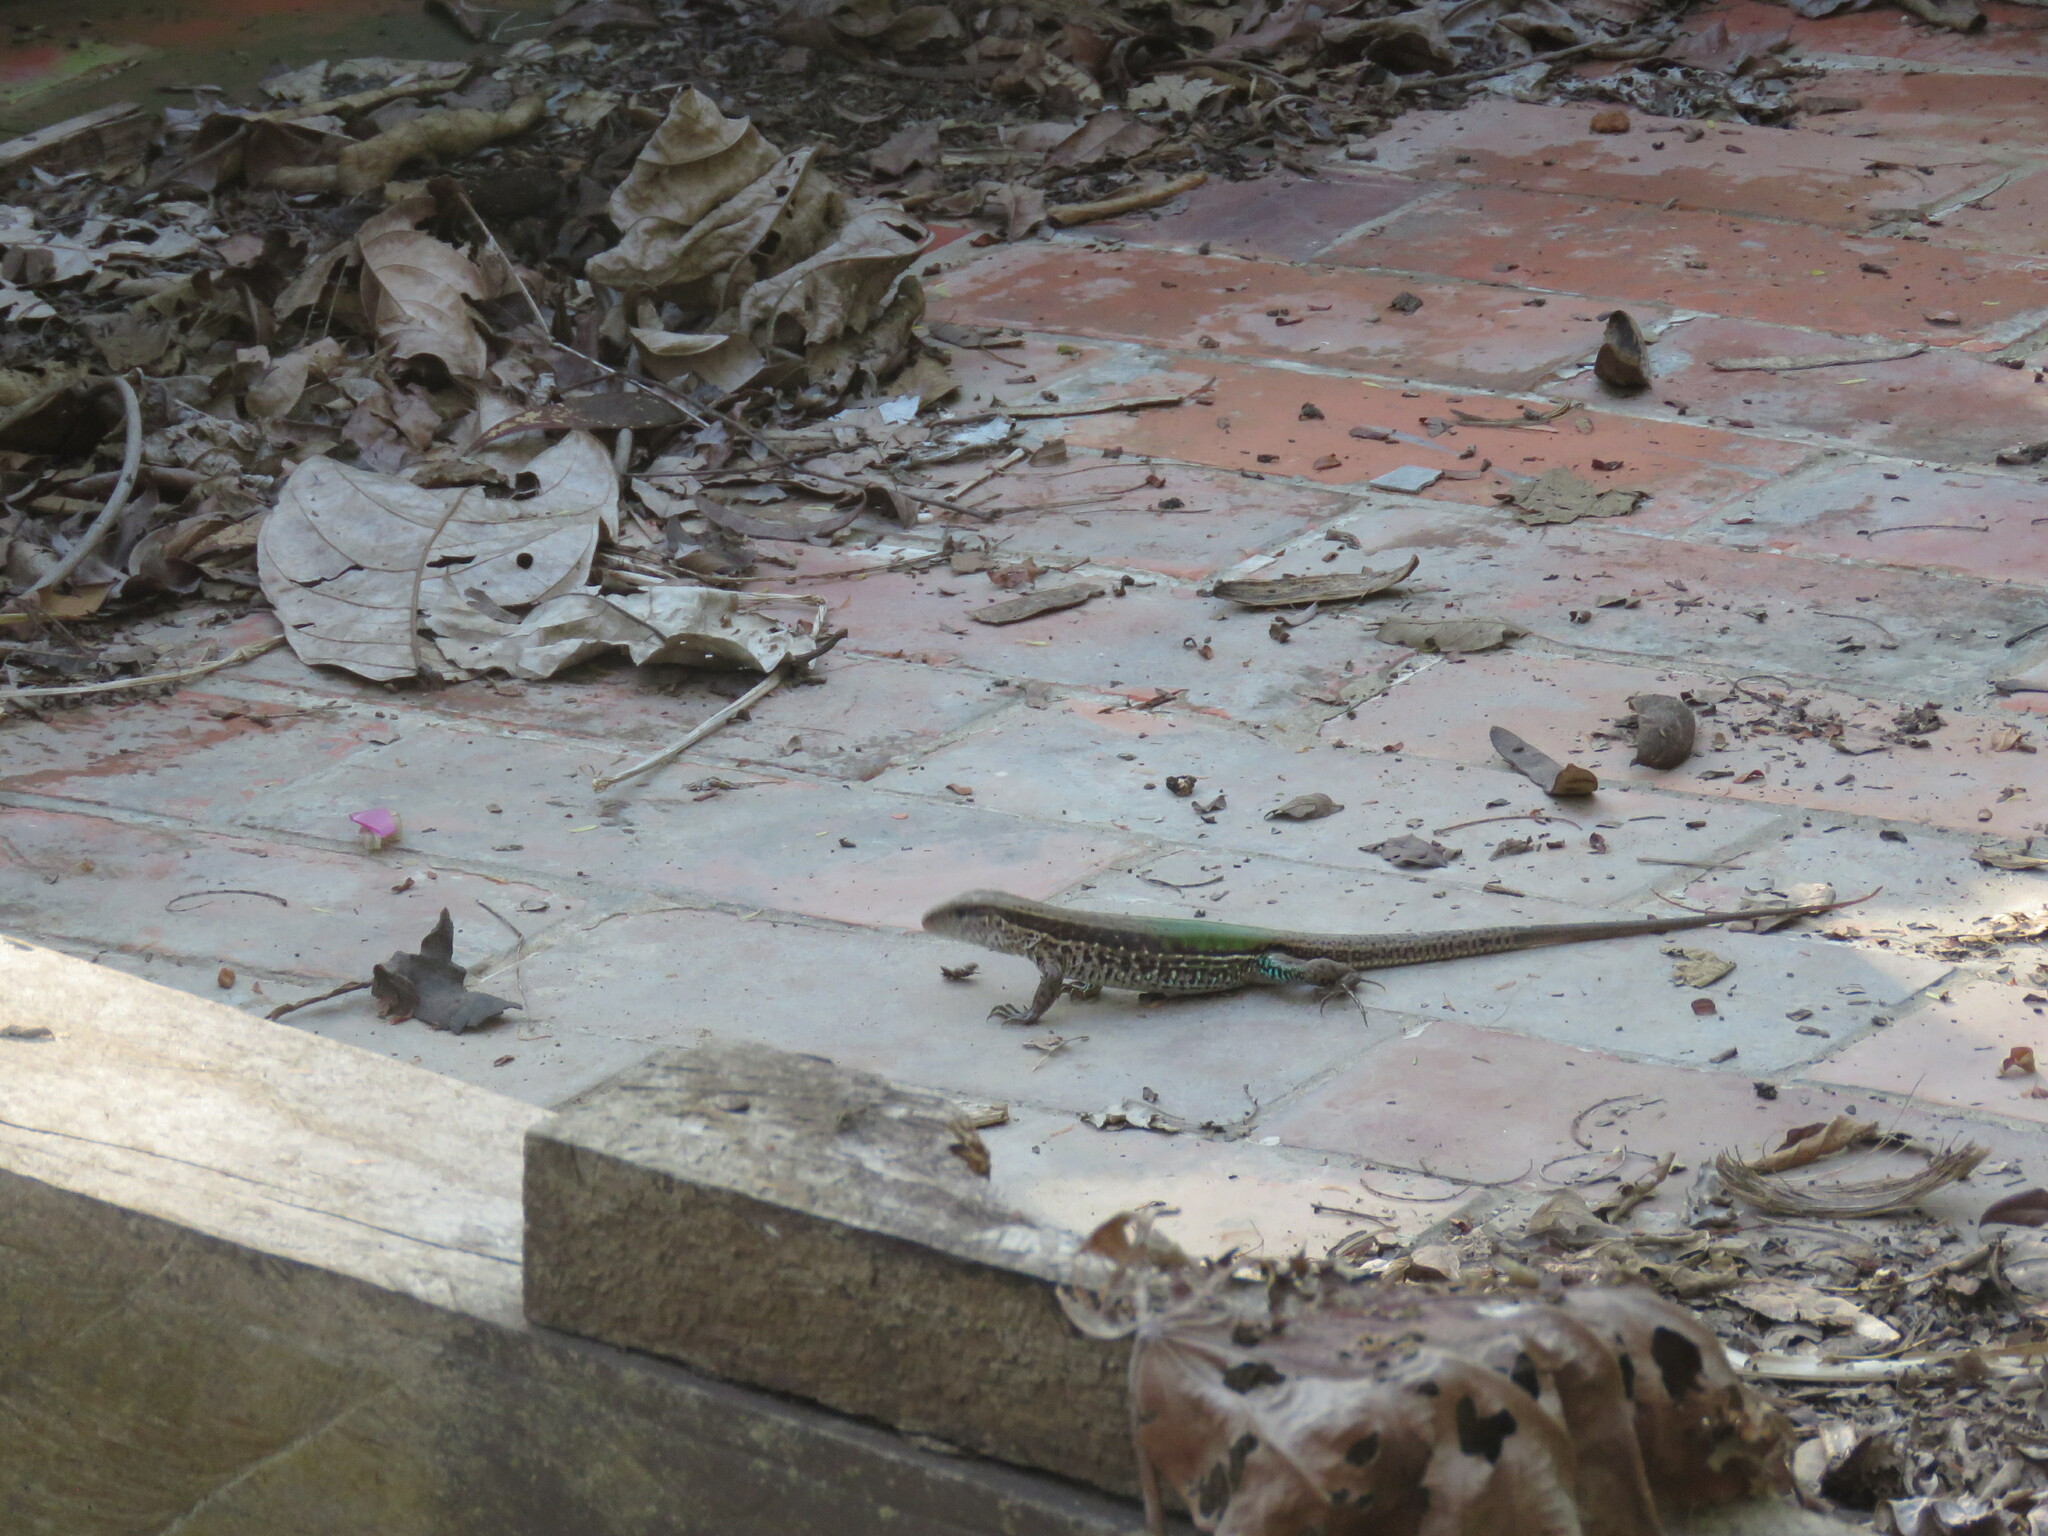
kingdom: Animalia
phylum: Chordata
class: Squamata
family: Teiidae
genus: Ameiva
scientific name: Ameiva ameiva
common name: Giant ameiva
